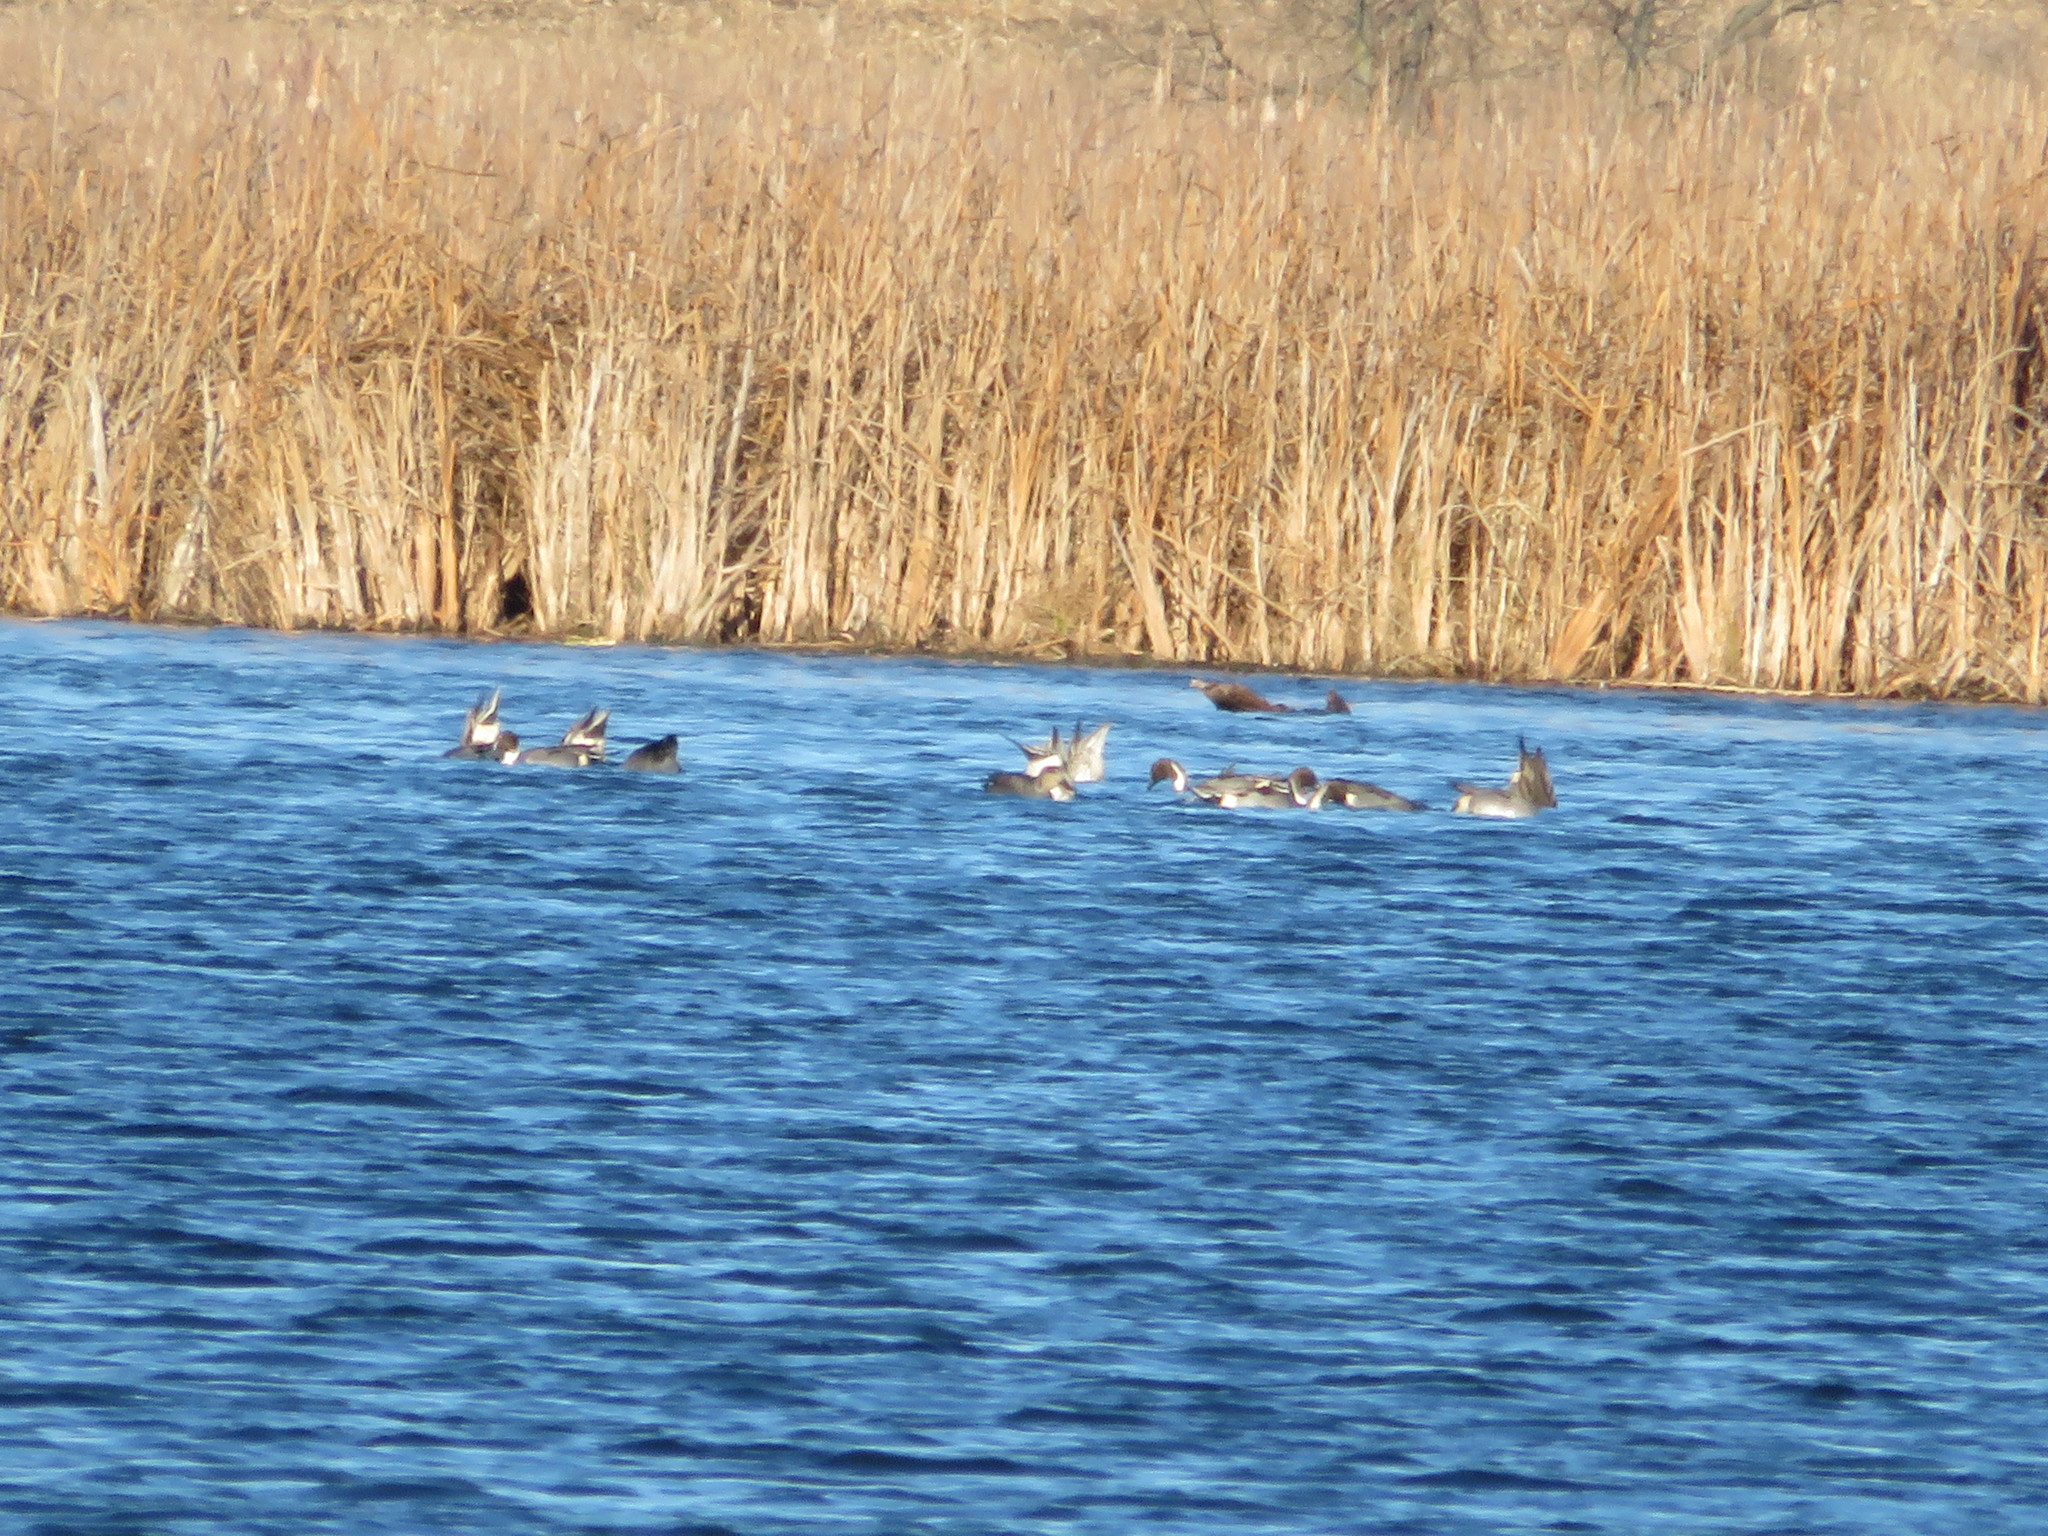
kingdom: Animalia
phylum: Chordata
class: Aves
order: Anseriformes
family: Anatidae
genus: Anas
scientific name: Anas acuta
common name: Northern pintail
